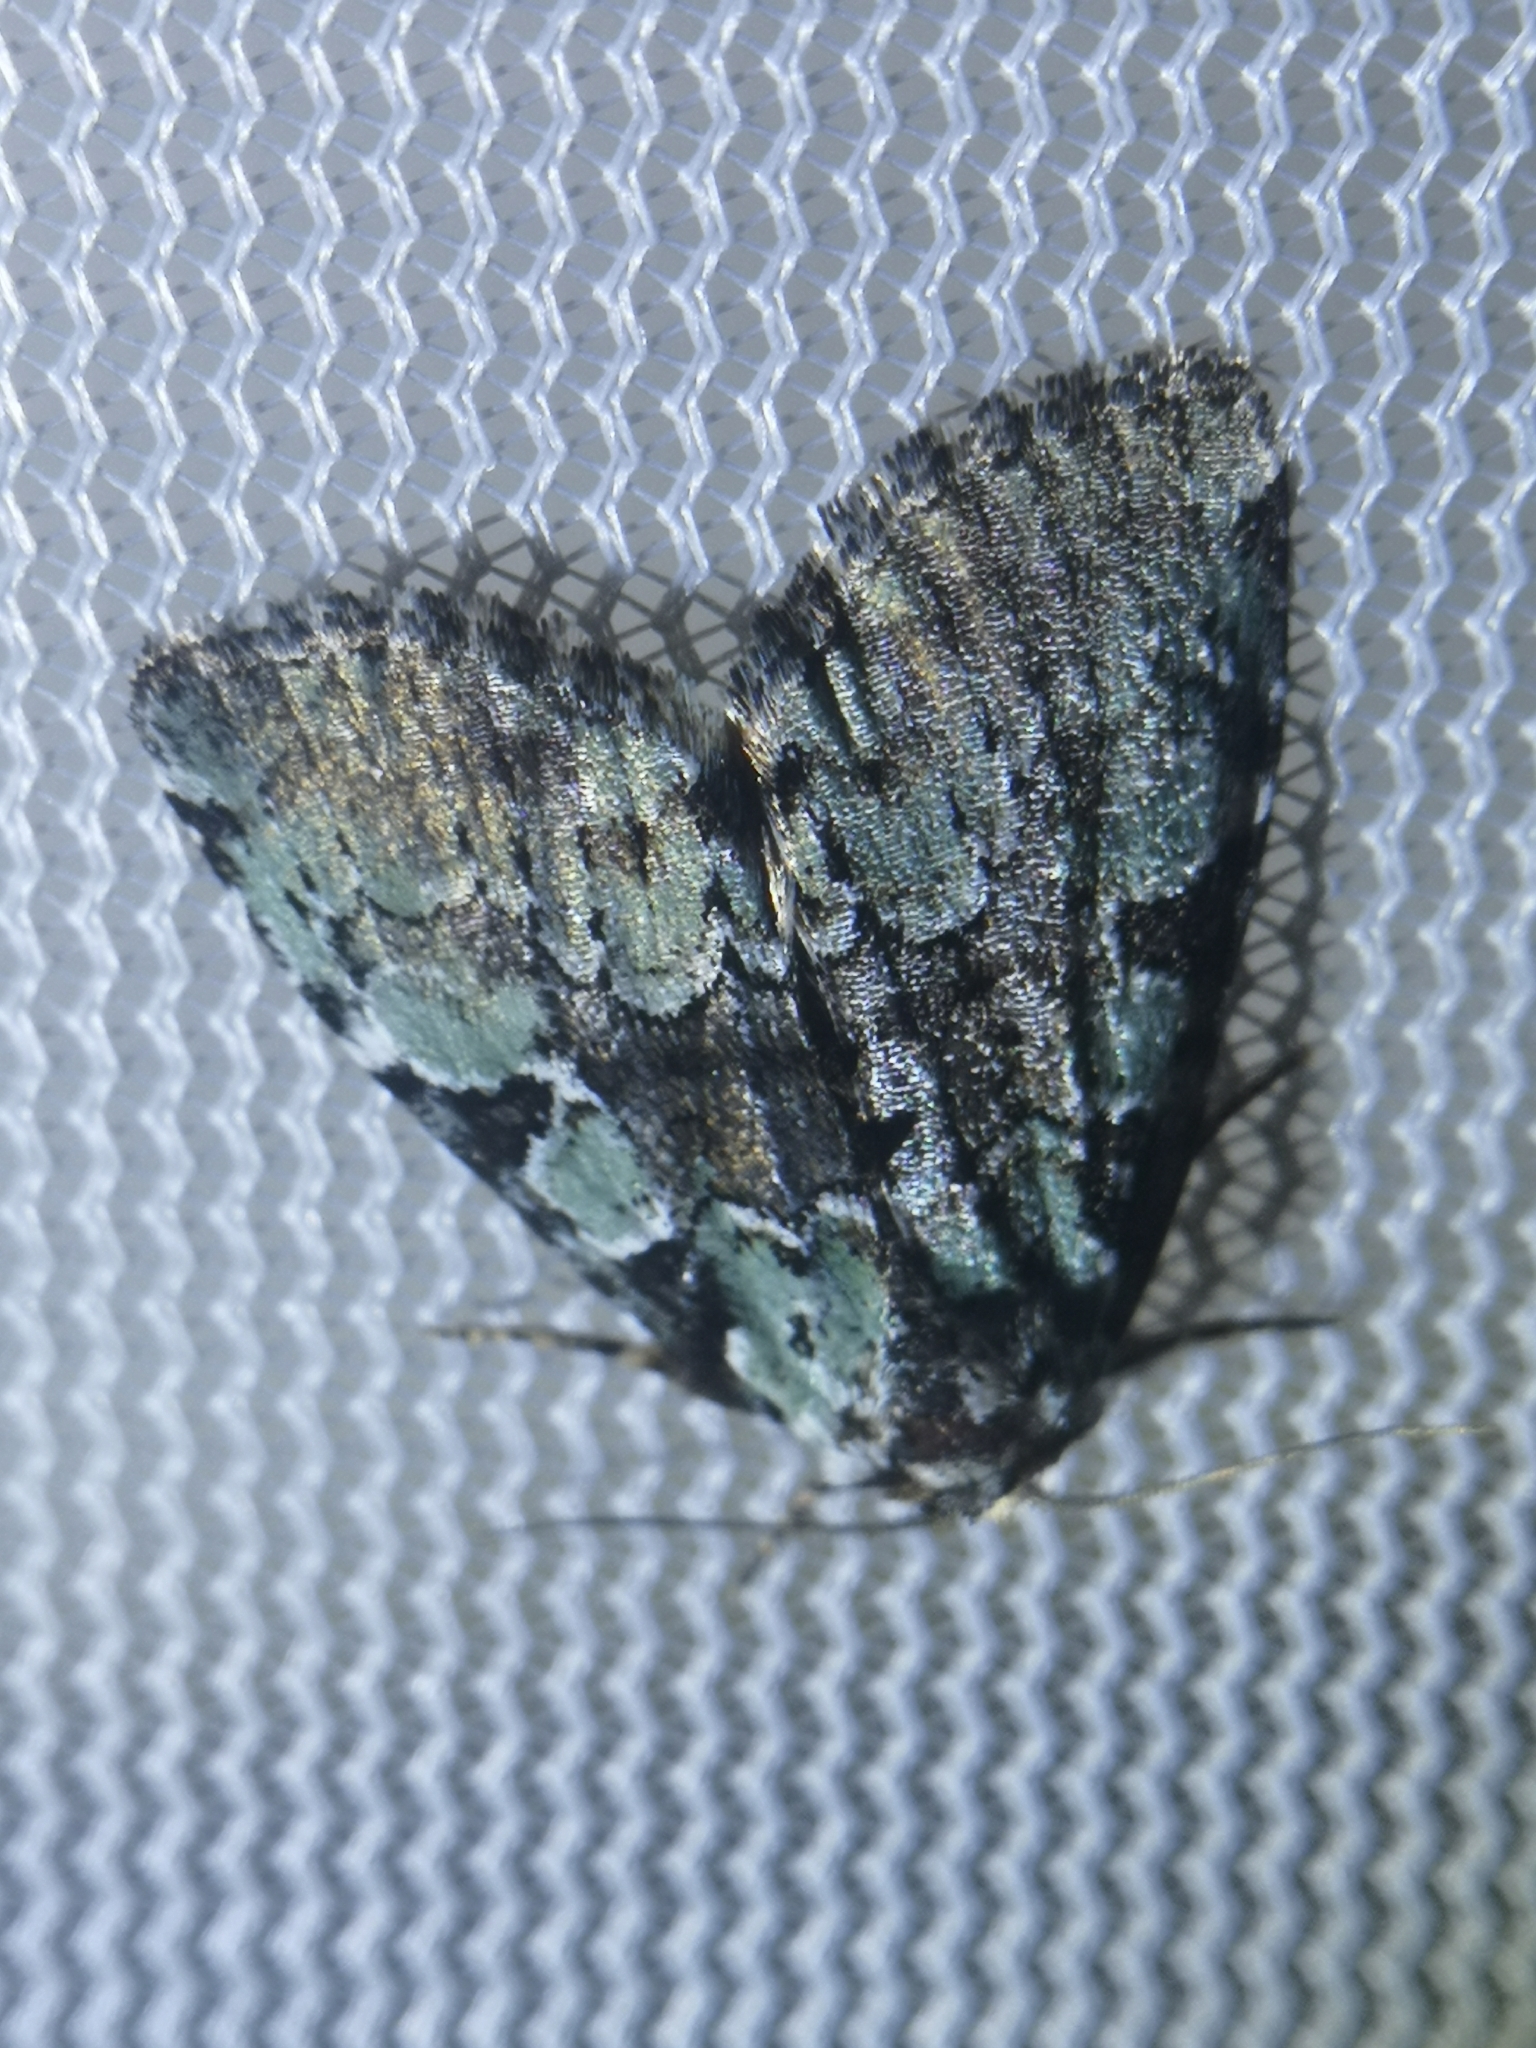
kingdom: Animalia
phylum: Arthropoda
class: Insecta
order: Lepidoptera
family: Noctuidae
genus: Leuconycta
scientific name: Leuconycta lepidula
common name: Marbled-green leuconycta moth
